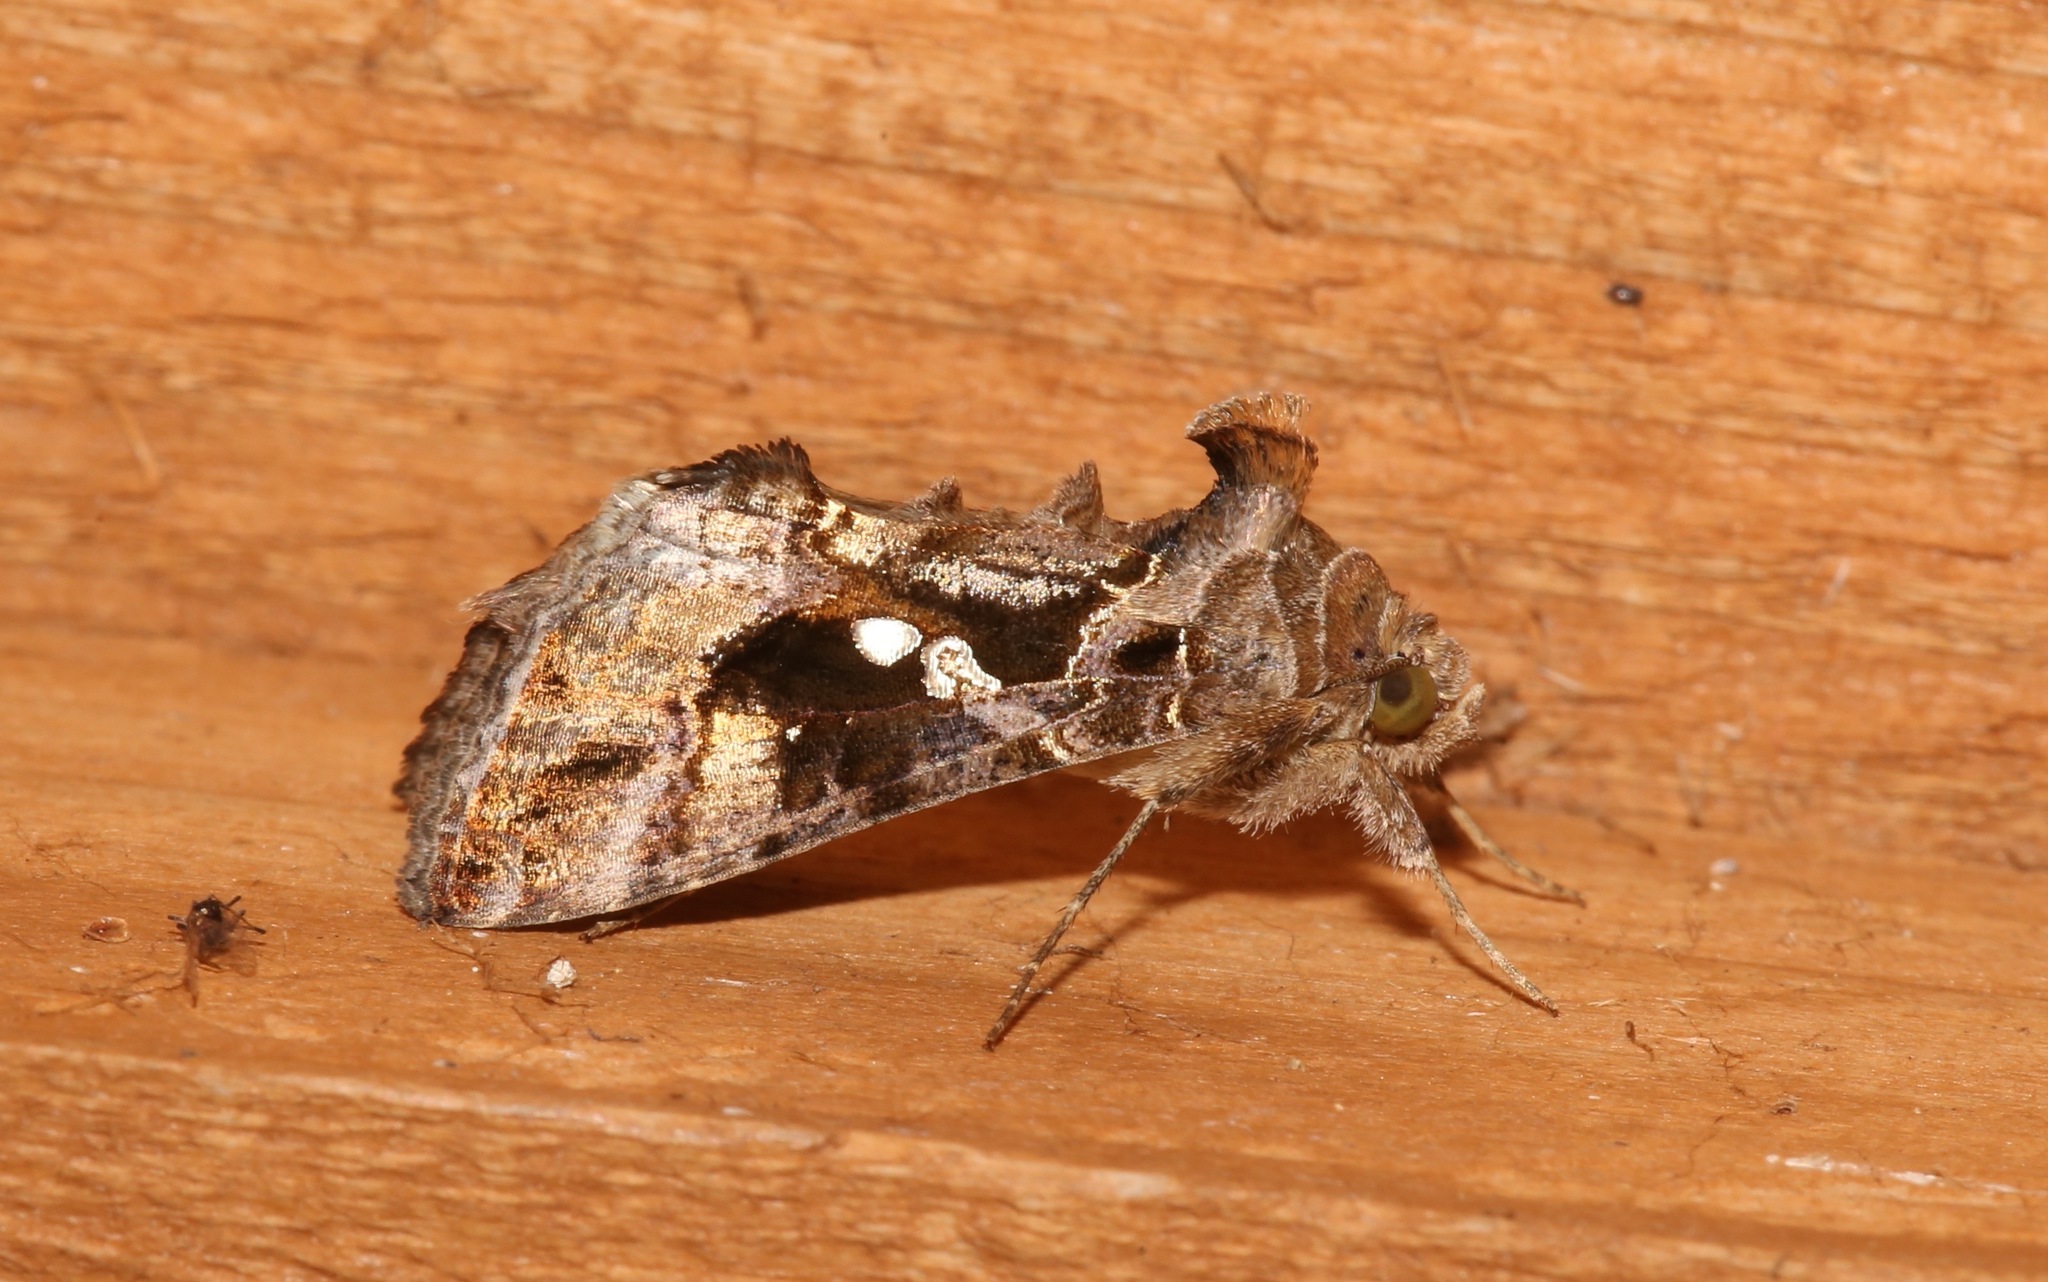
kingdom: Animalia
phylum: Arthropoda
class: Insecta
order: Lepidoptera
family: Noctuidae
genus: Chrysodeixis
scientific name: Chrysodeixis includens
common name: Cutworm moth
